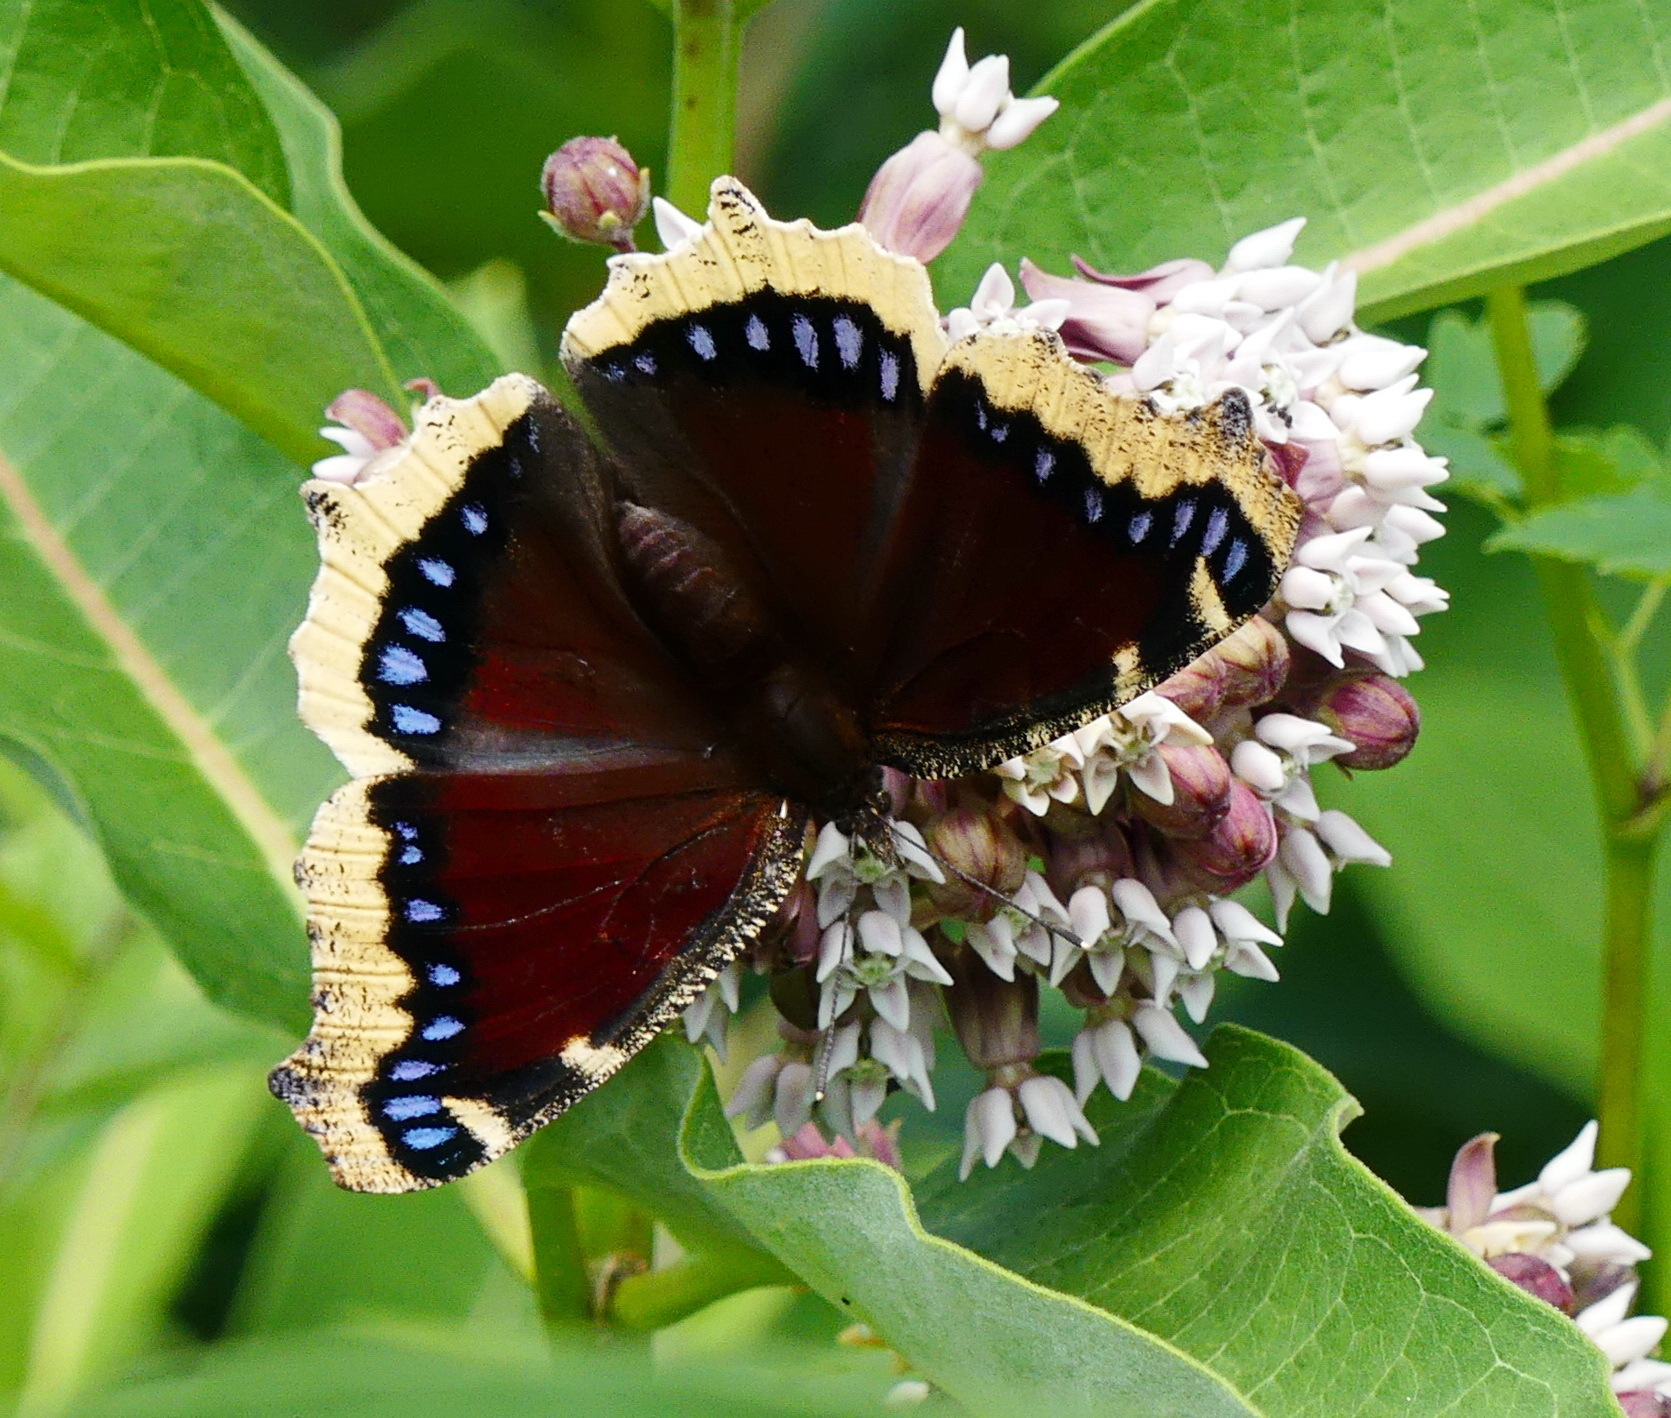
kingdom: Animalia
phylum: Arthropoda
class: Insecta
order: Lepidoptera
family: Nymphalidae
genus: Nymphalis
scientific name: Nymphalis antiopa
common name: Camberwell beauty
